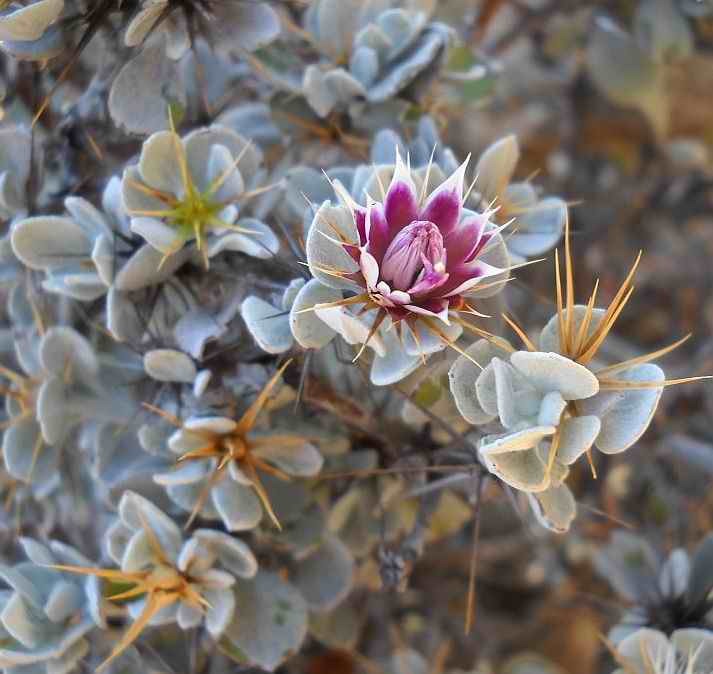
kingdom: Plantae
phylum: Tracheophyta
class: Magnoliopsida
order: Asterales
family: Asteraceae
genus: Macledium
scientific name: Macledium spinosum
